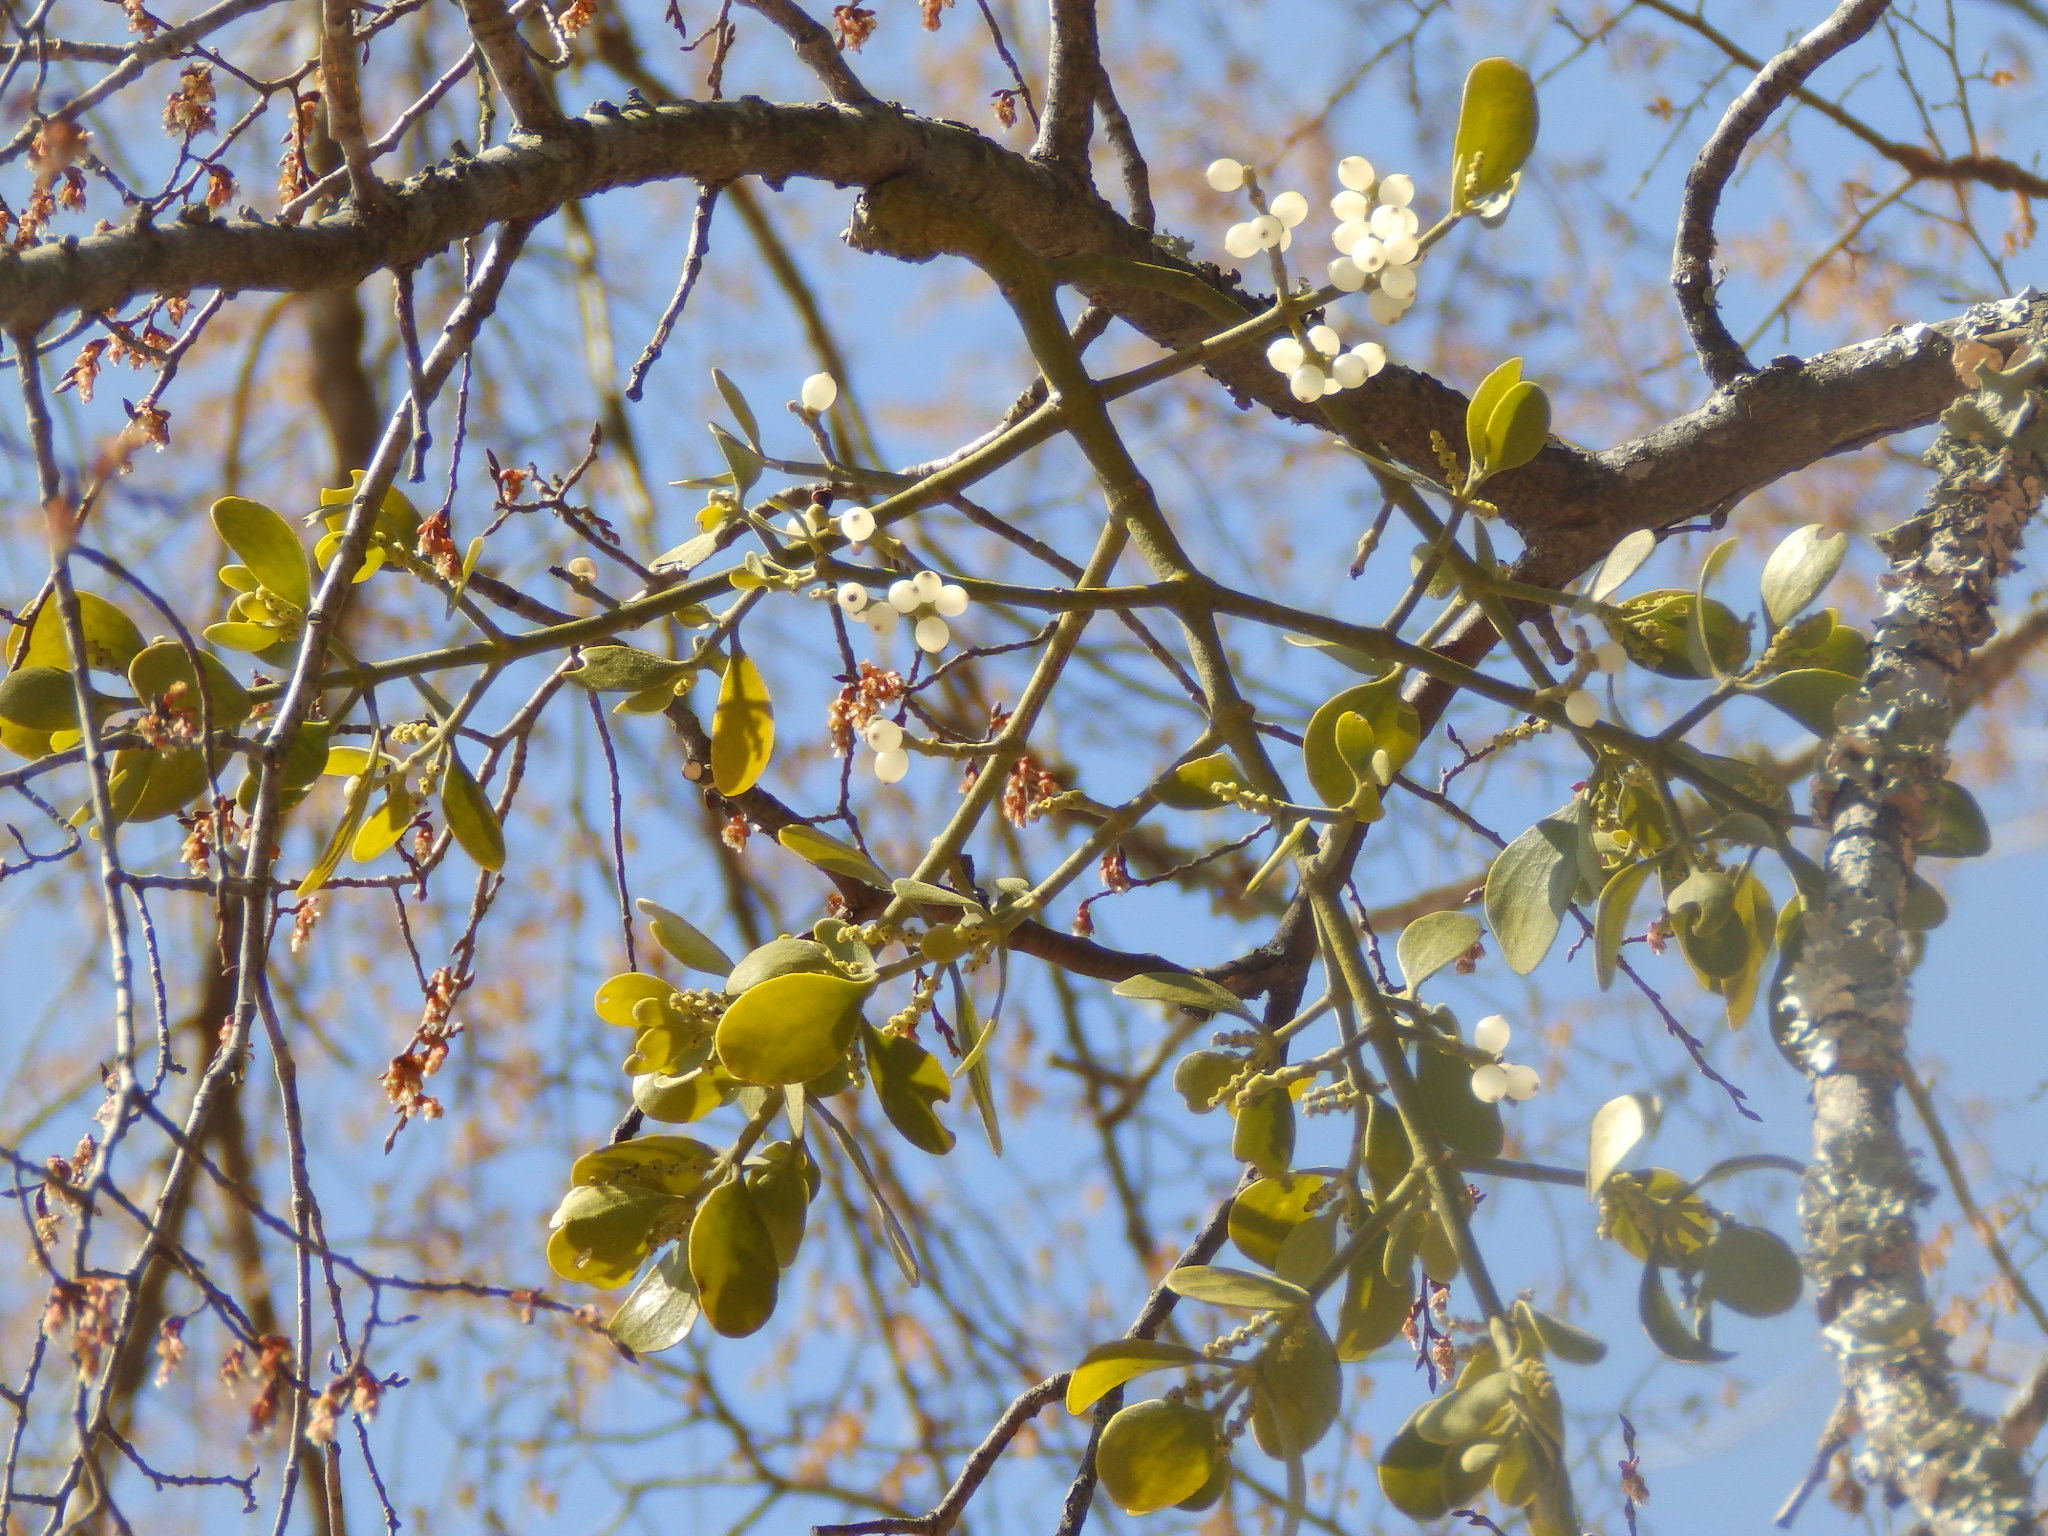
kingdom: Plantae
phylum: Tracheophyta
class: Magnoliopsida
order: Santalales
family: Viscaceae
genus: Phoradendron
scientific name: Phoradendron leucarpum
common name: Pacific mistletoe
